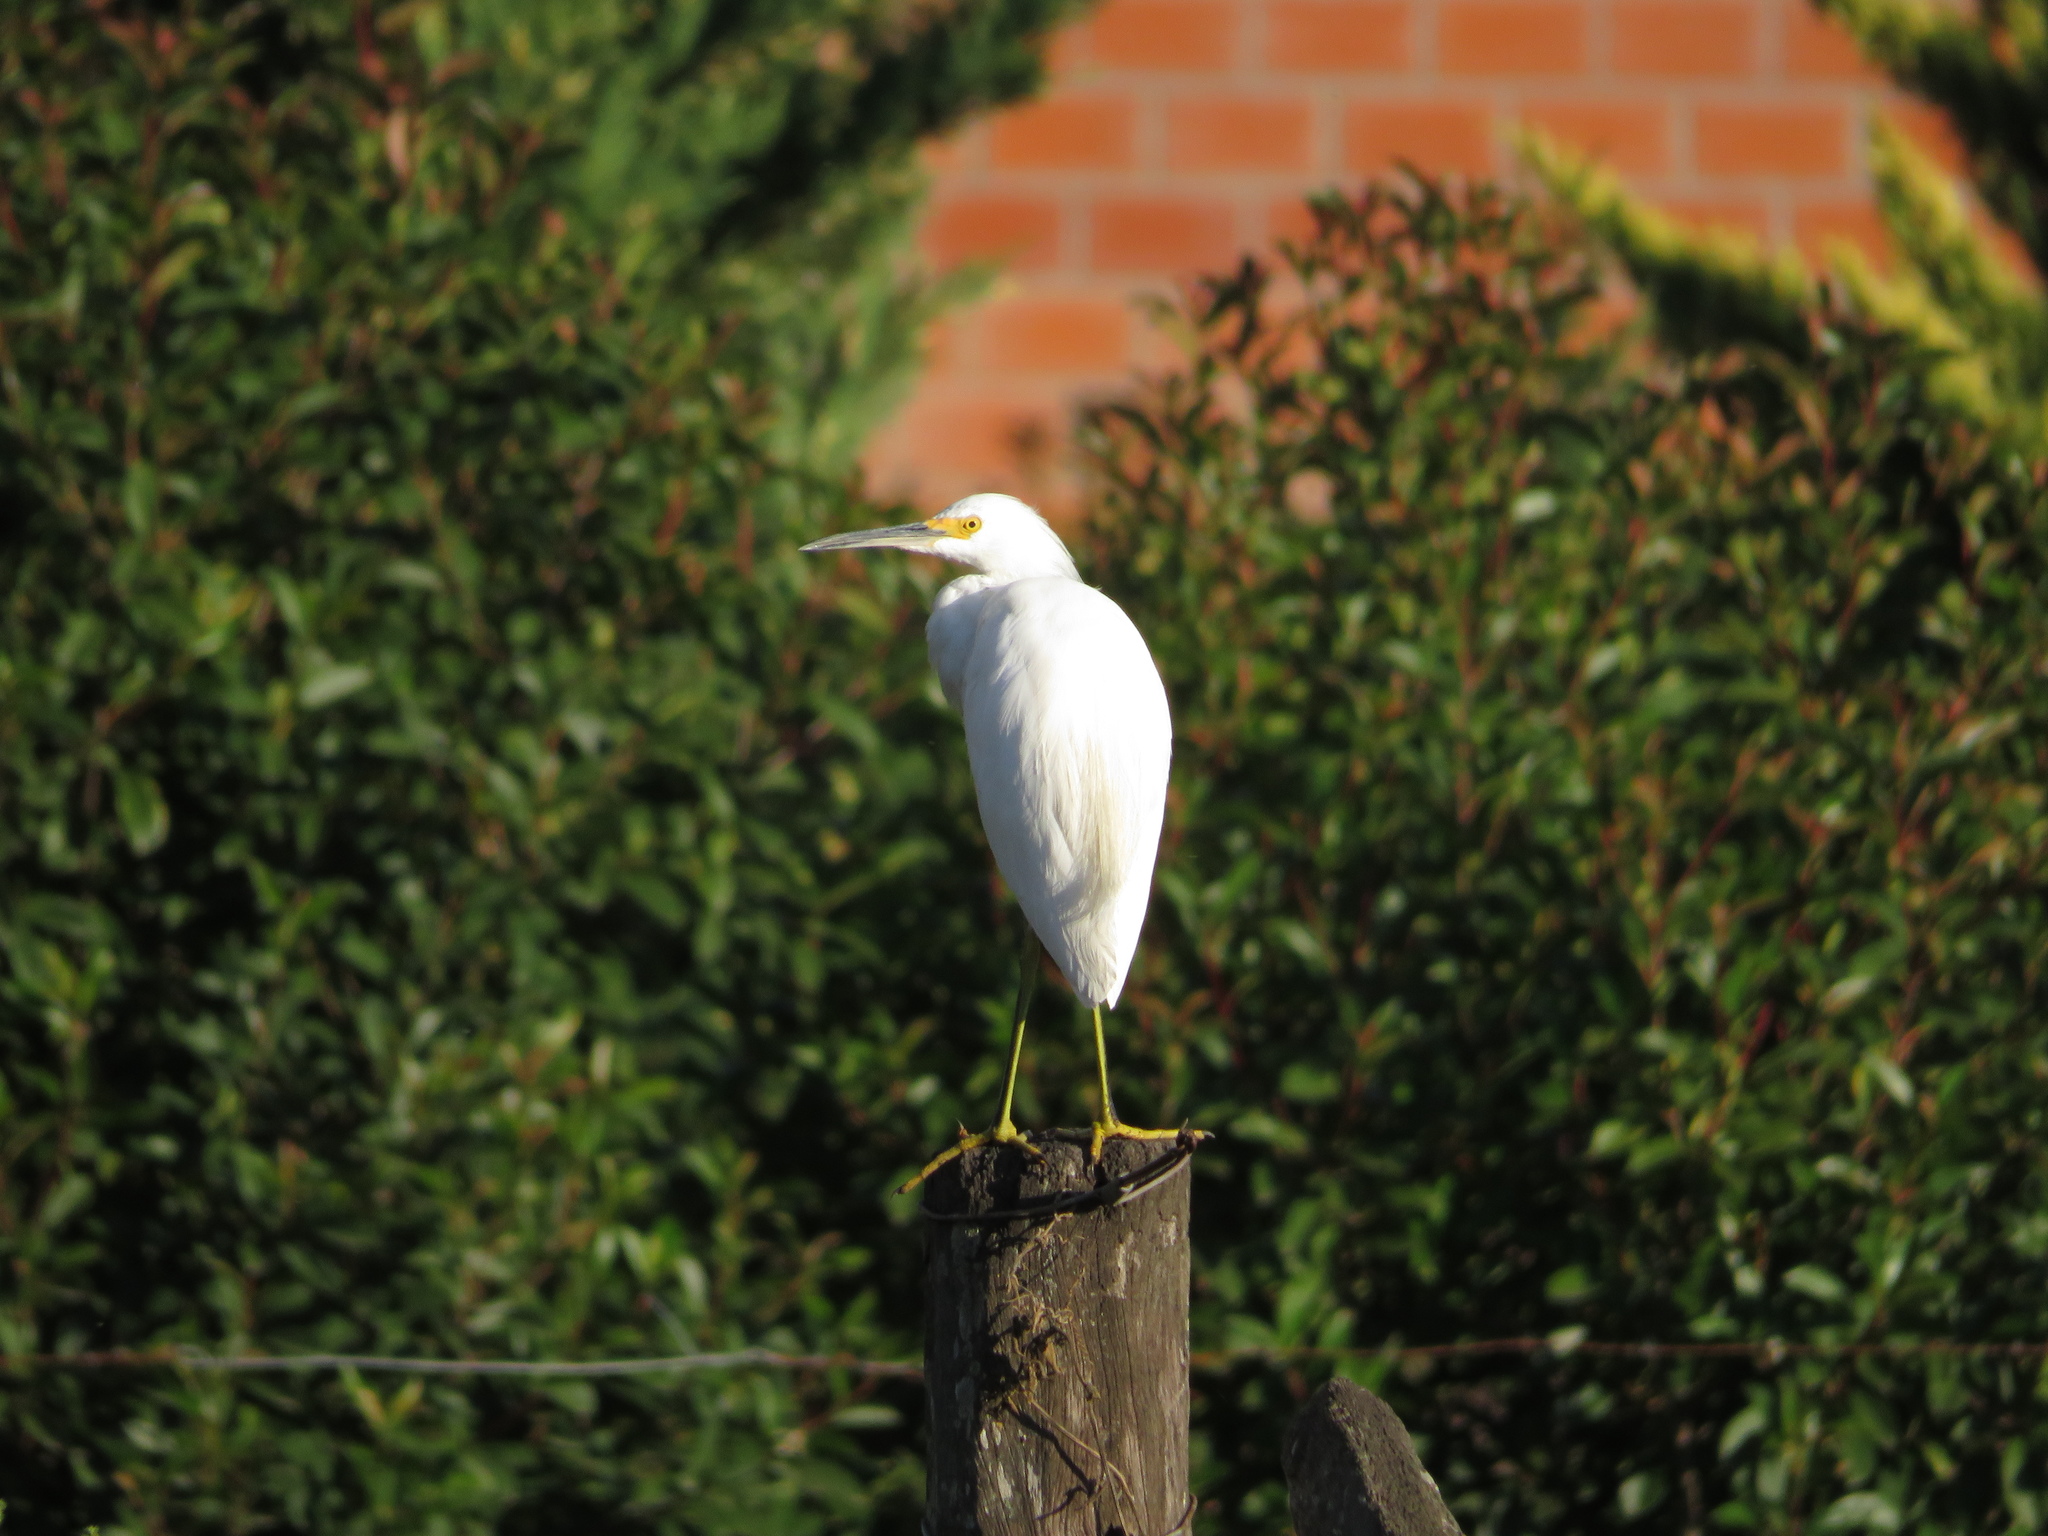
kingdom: Animalia
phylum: Chordata
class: Aves
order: Pelecaniformes
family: Ardeidae
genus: Egretta
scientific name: Egretta thula
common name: Snowy egret
